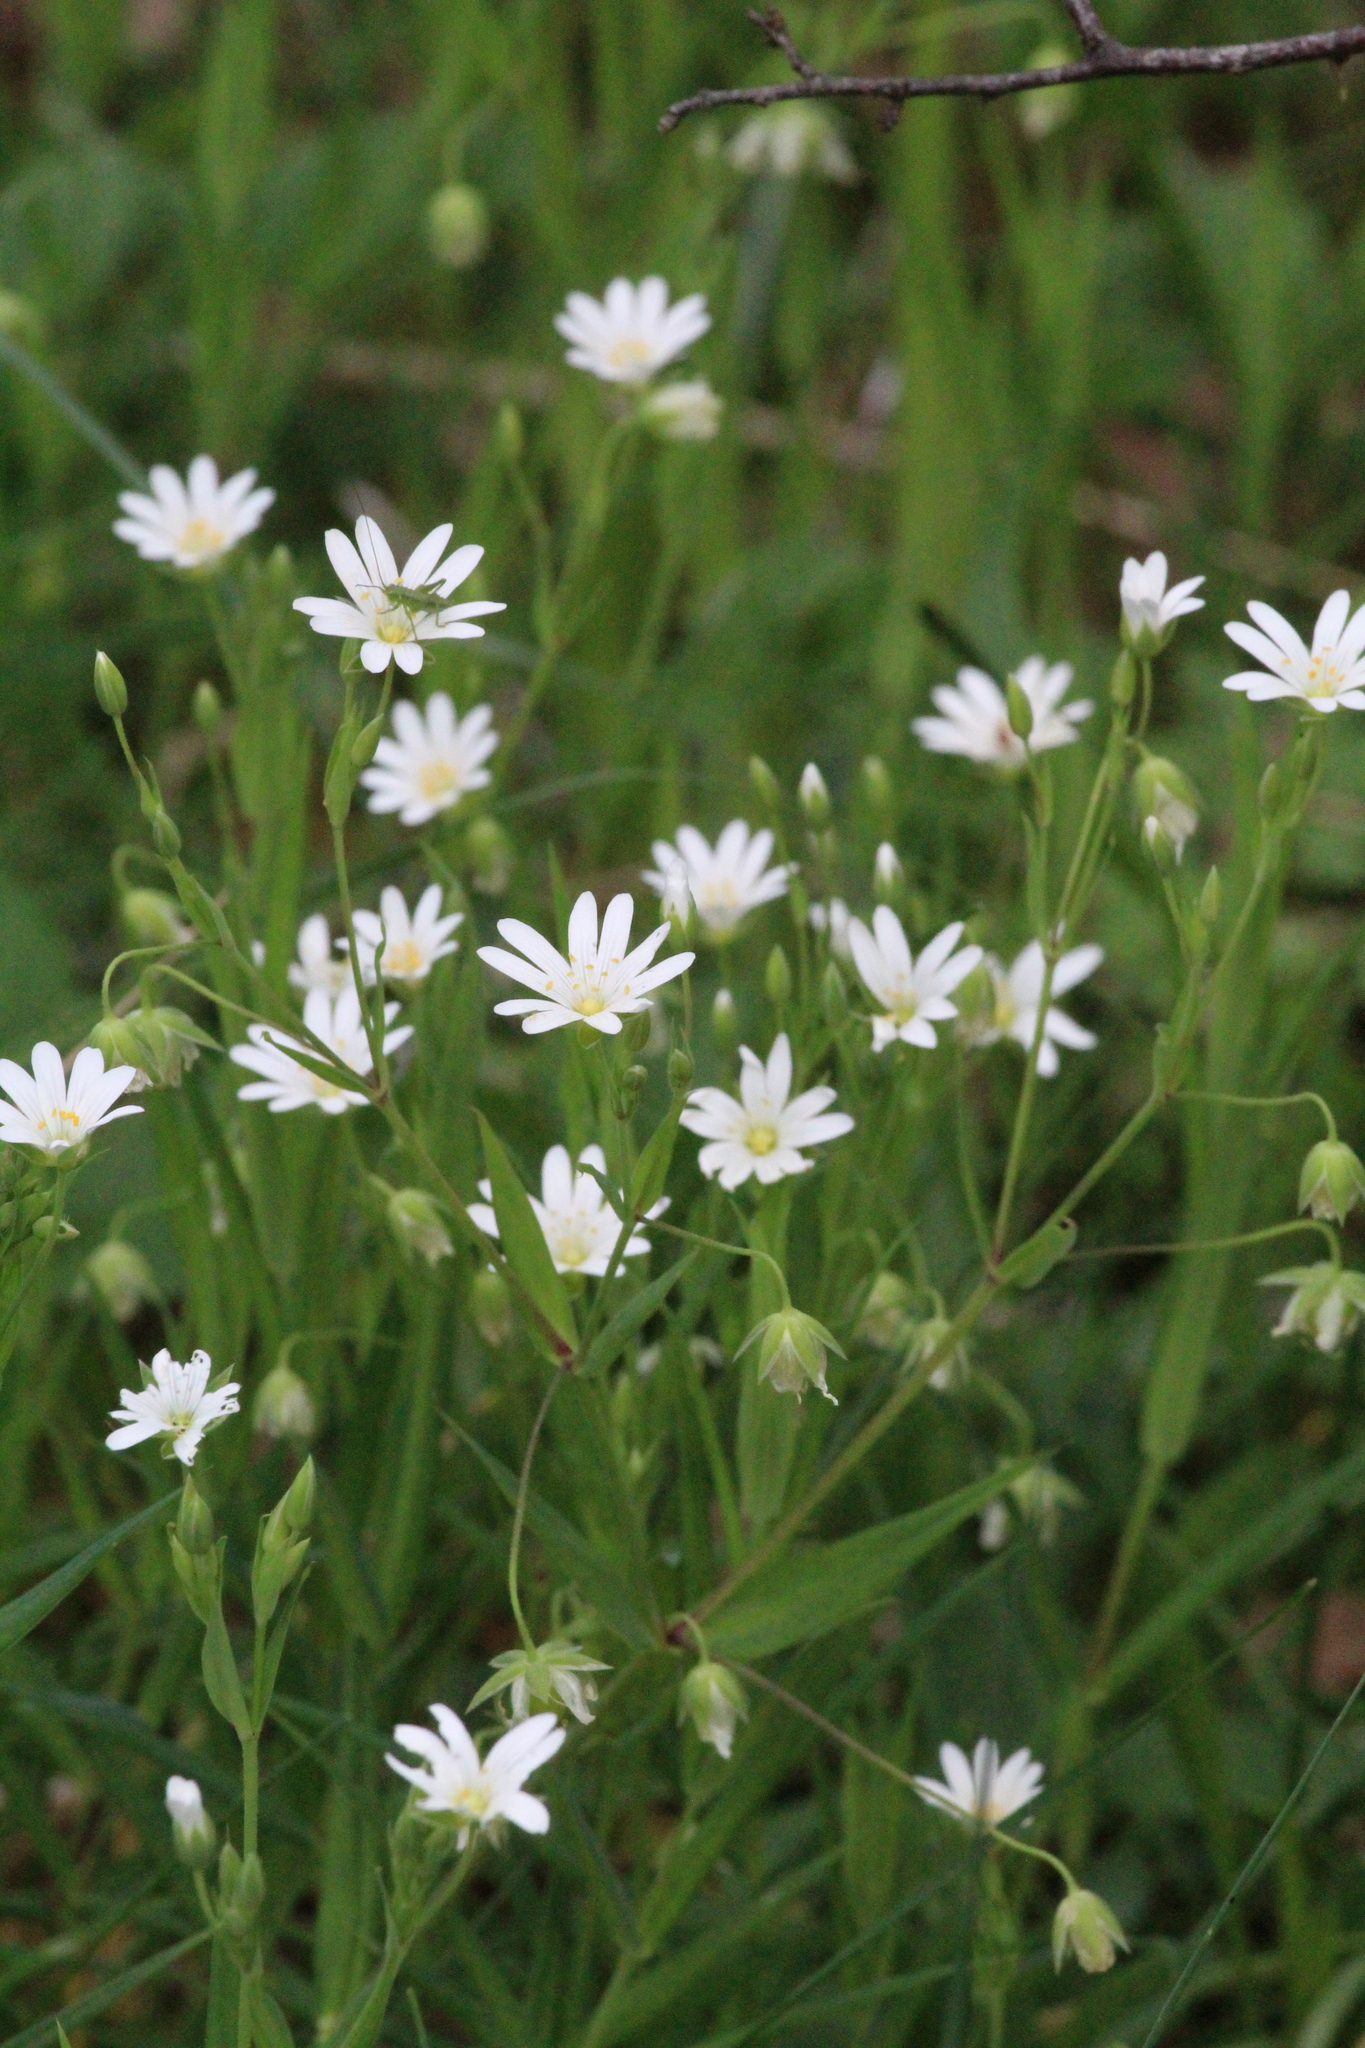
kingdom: Plantae
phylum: Tracheophyta
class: Magnoliopsida
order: Caryophyllales
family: Caryophyllaceae
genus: Rabelera
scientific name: Rabelera holostea
